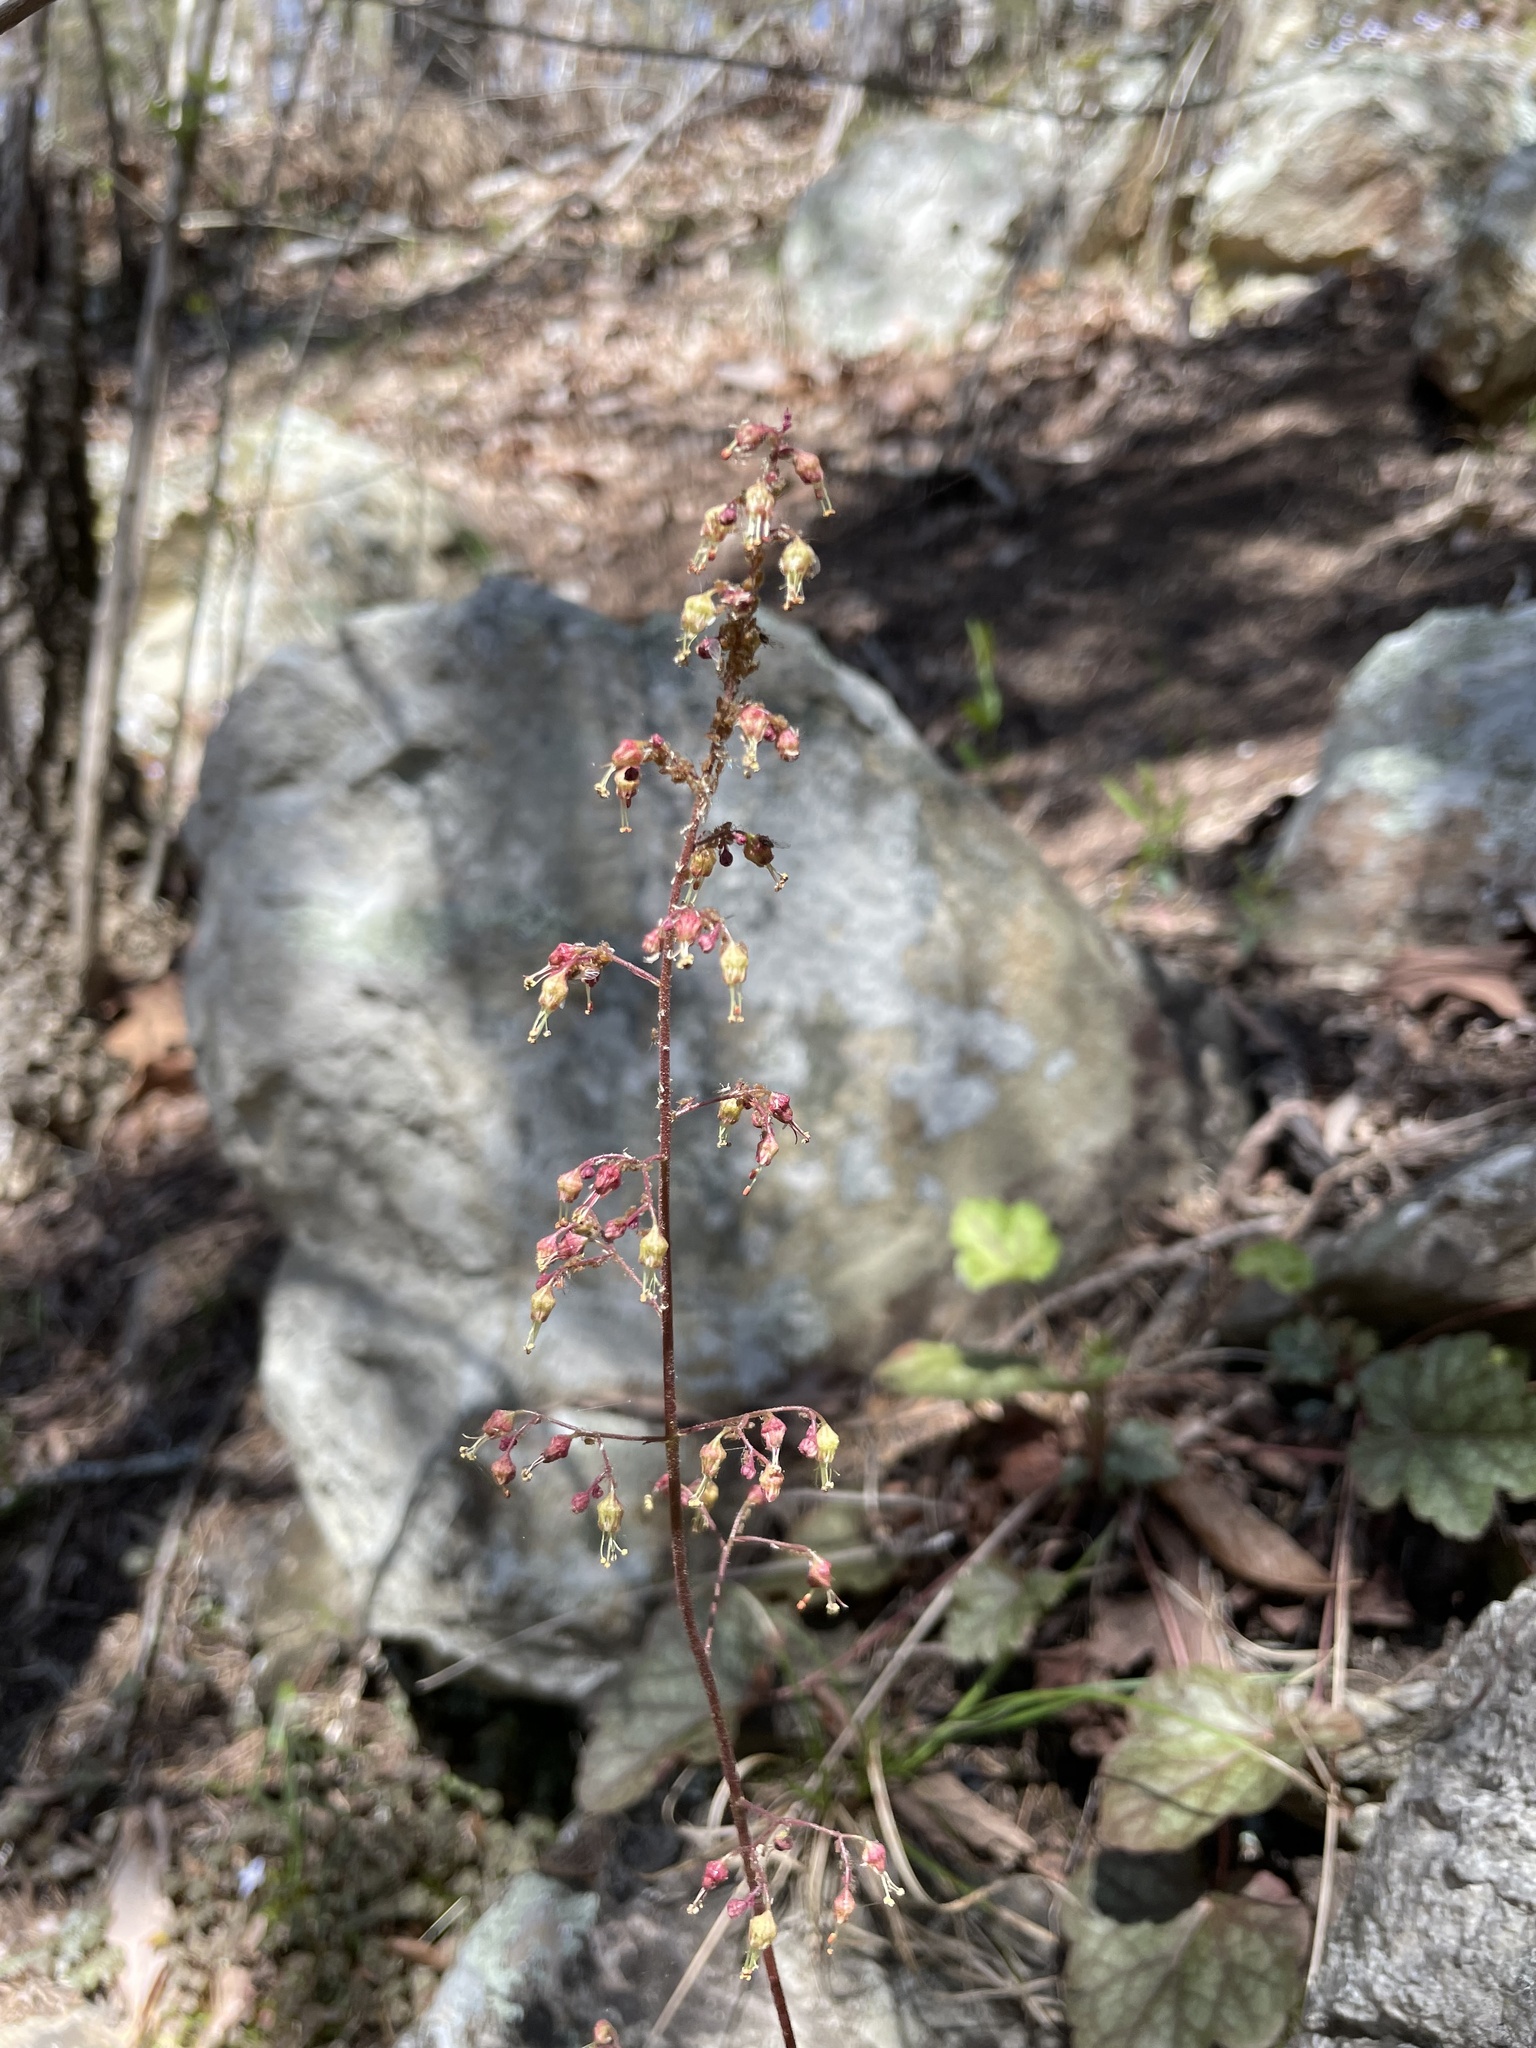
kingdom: Plantae
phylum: Tracheophyta
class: Magnoliopsida
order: Saxifragales
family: Saxifragaceae
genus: Heuchera
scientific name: Heuchera americana
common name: Alumroot
